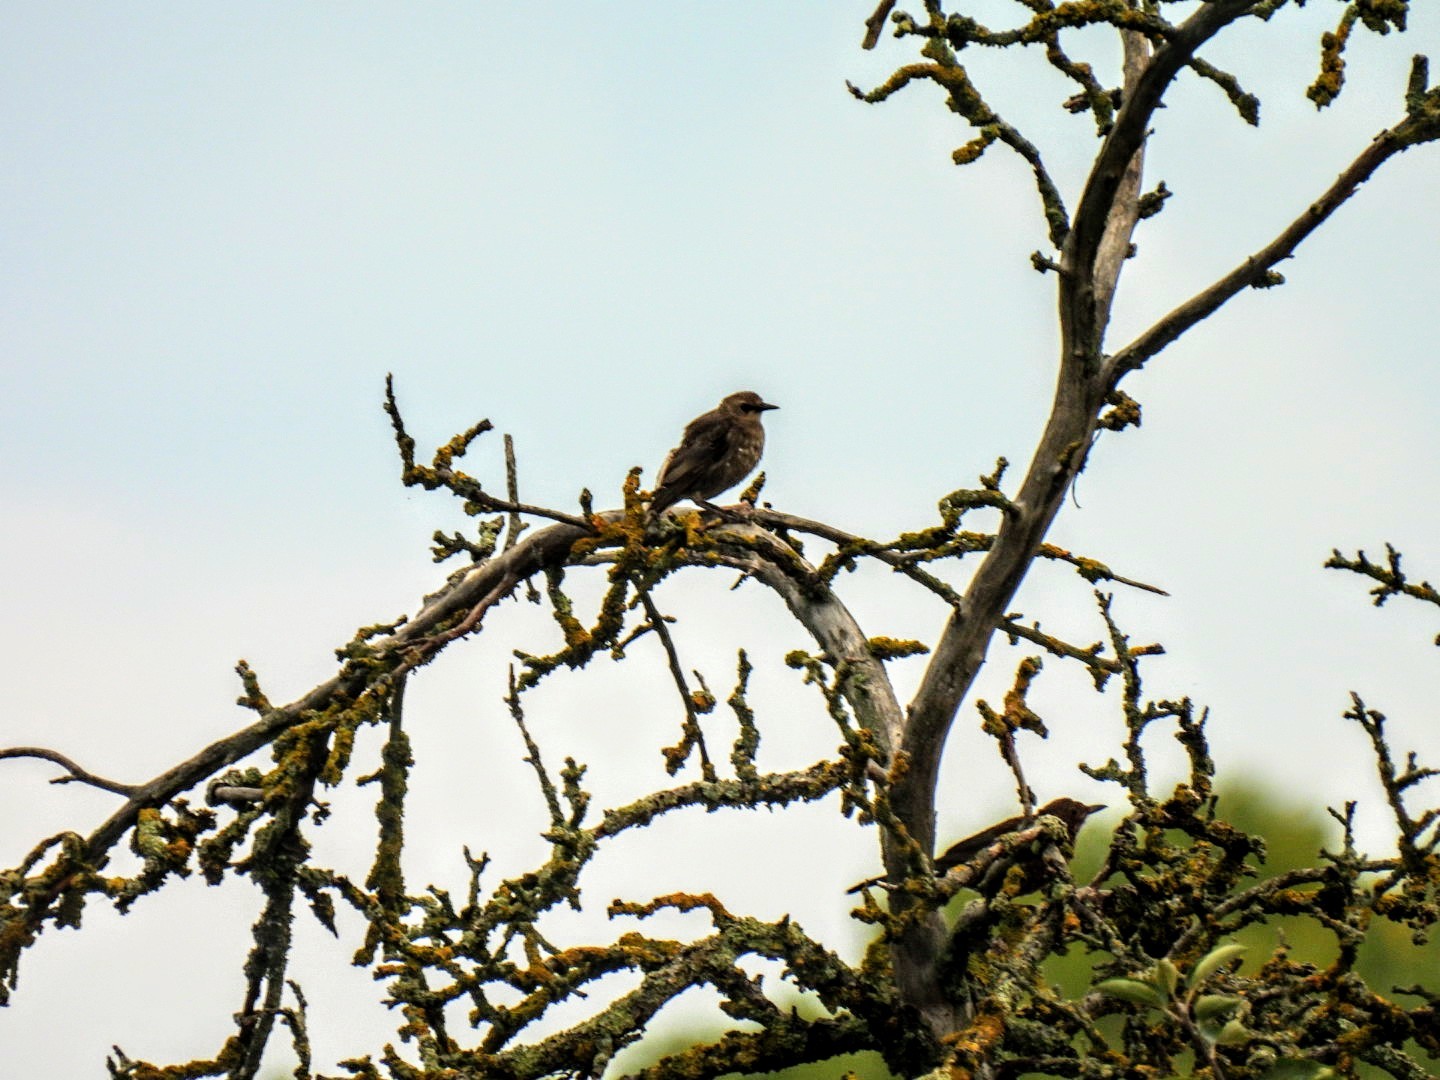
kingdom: Animalia
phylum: Chordata
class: Aves
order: Passeriformes
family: Sturnidae
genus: Sturnus
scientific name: Sturnus vulgaris
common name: Common starling
